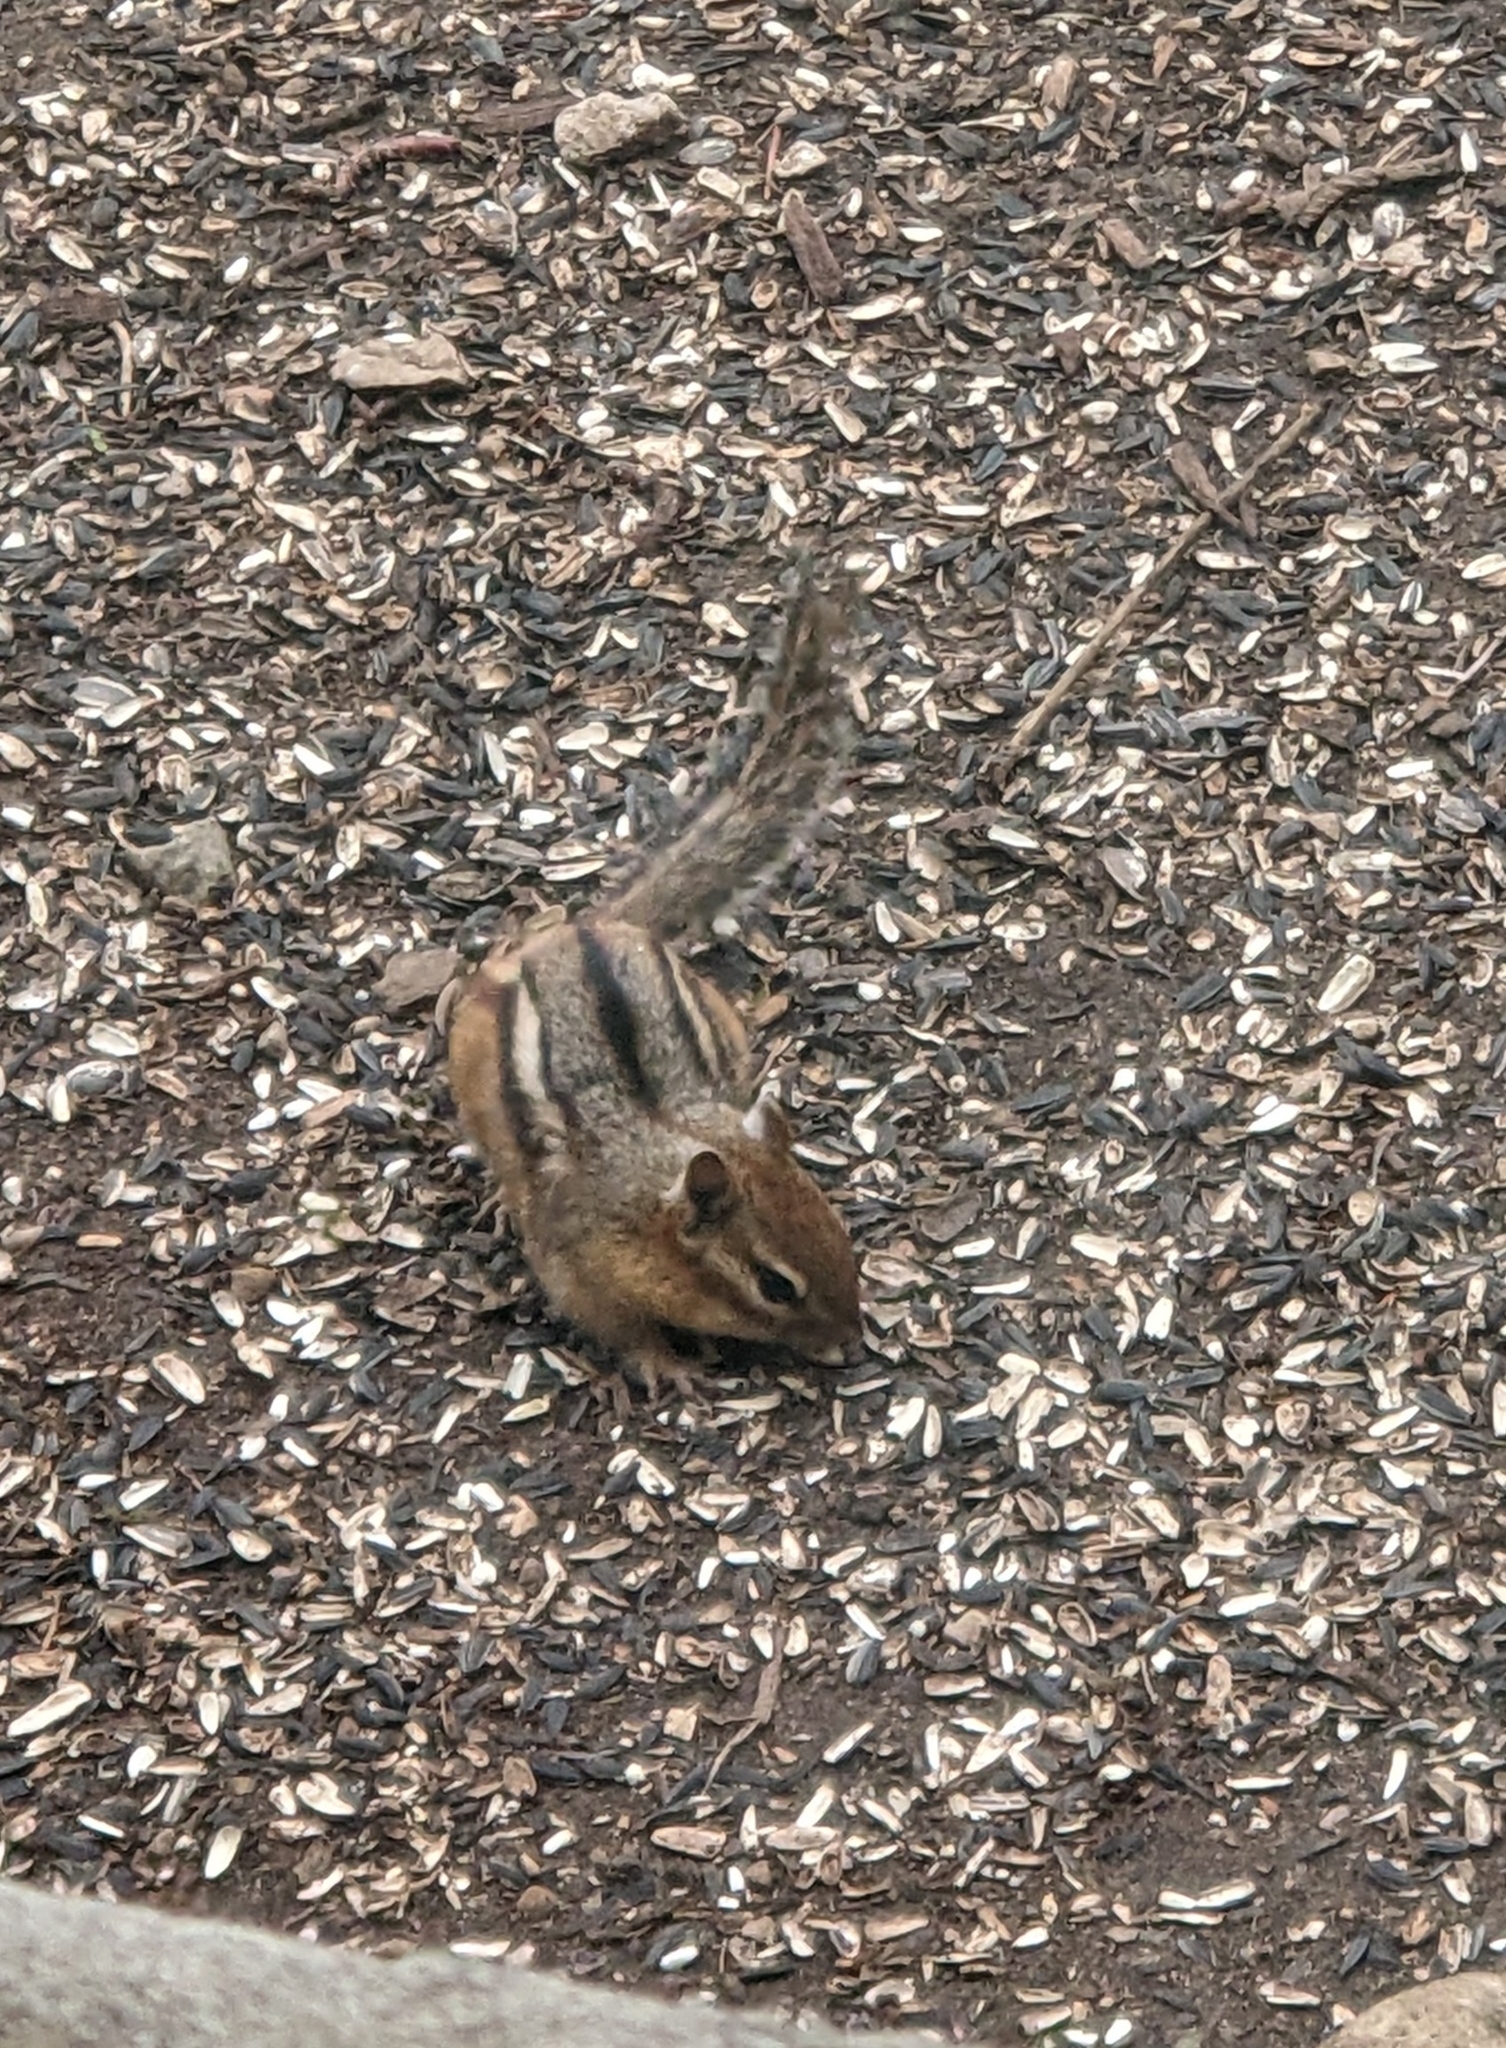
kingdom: Animalia
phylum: Chordata
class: Mammalia
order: Rodentia
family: Sciuridae
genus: Tamias
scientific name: Tamias striatus
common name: Eastern chipmunk
